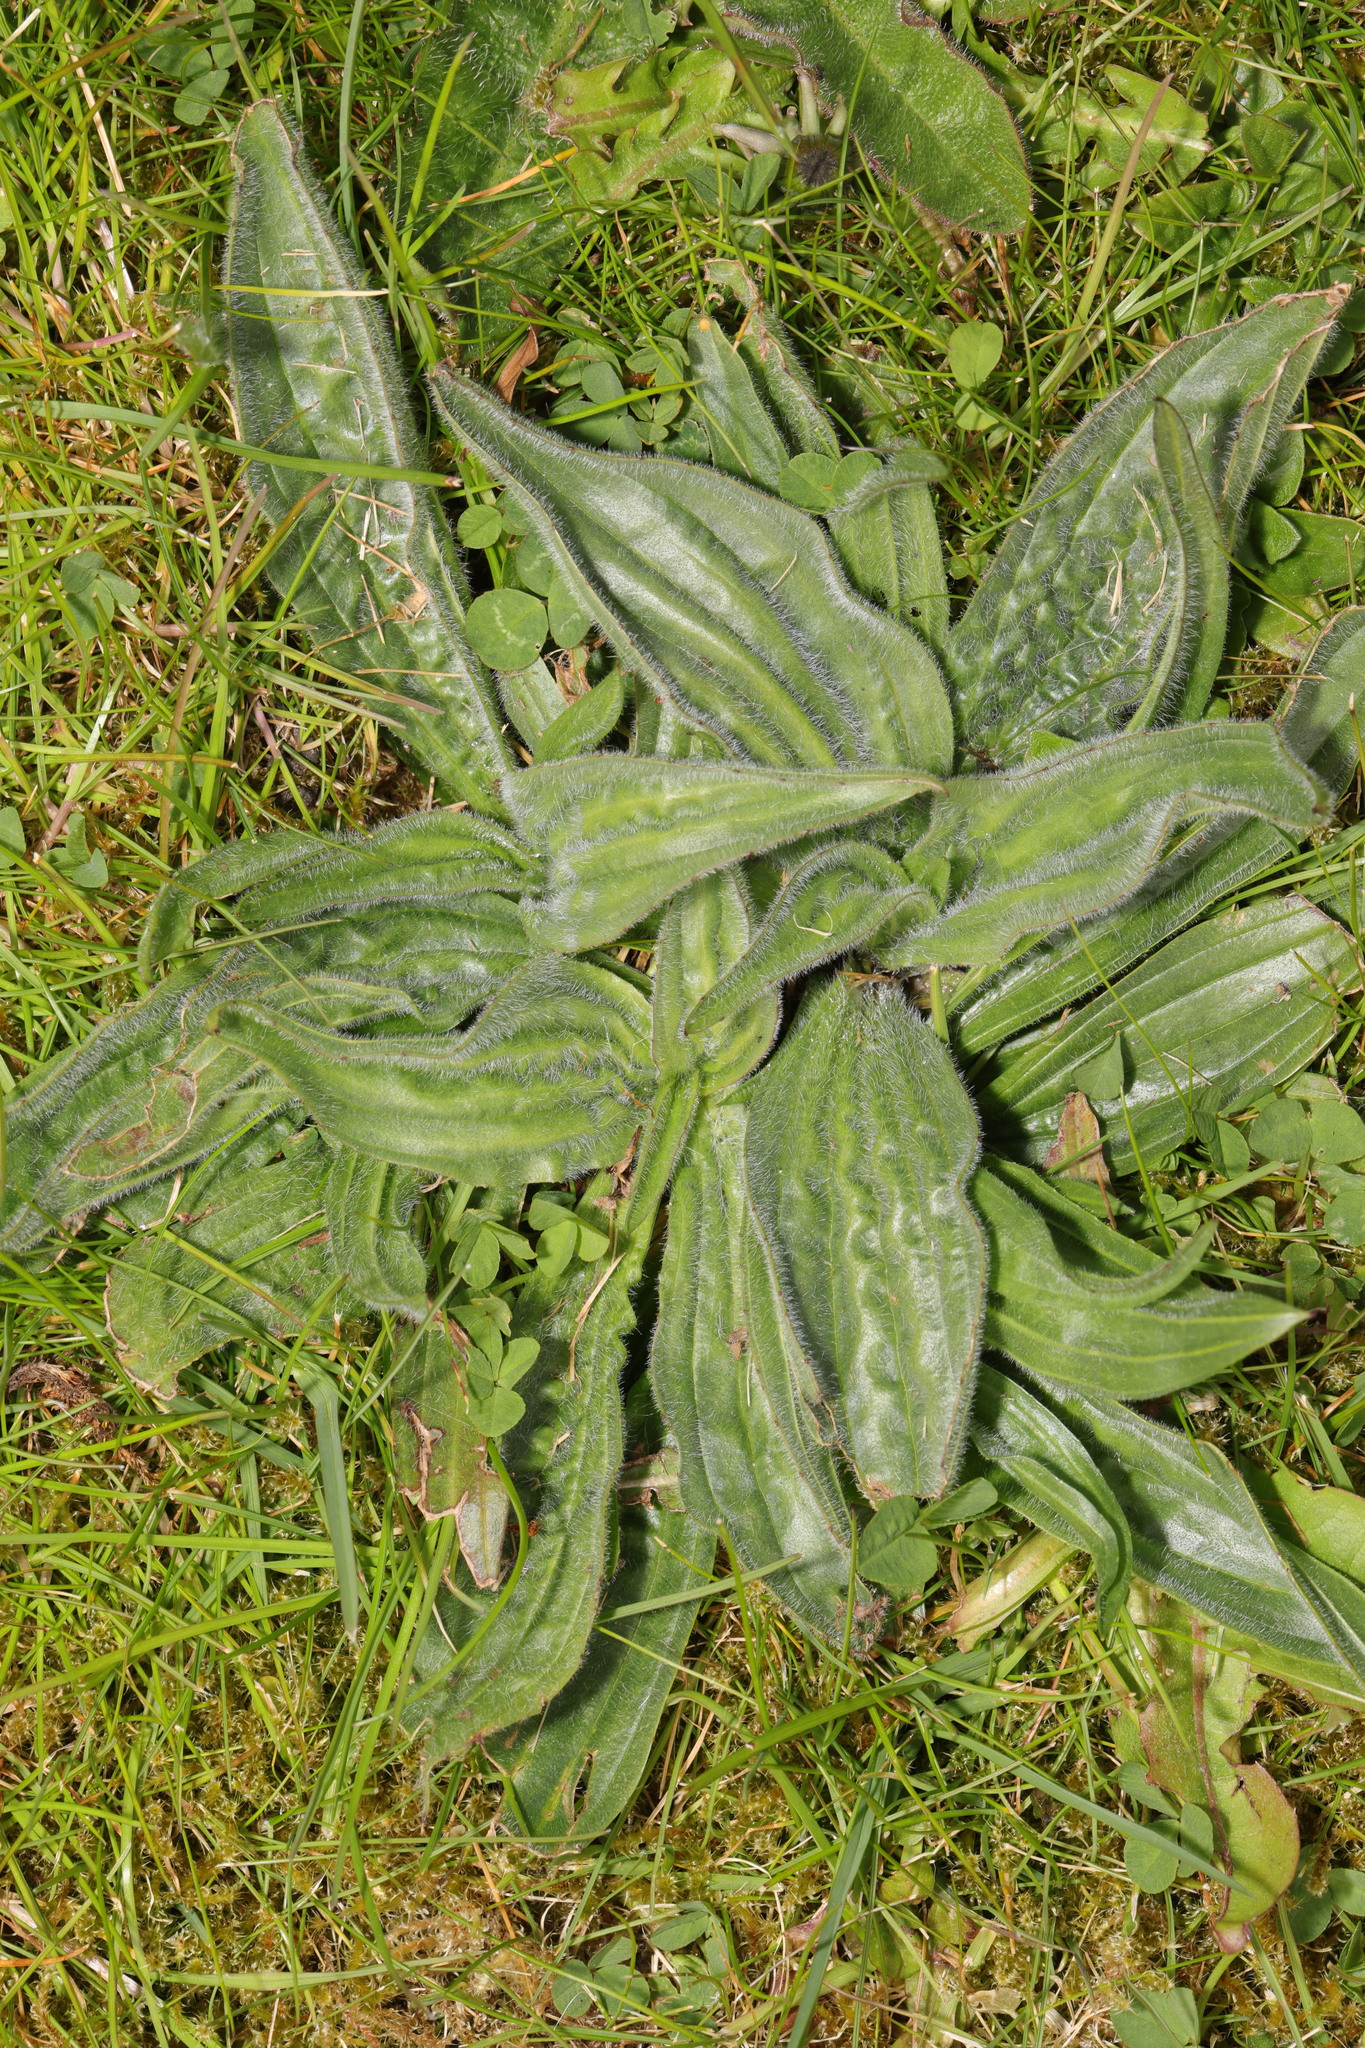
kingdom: Plantae
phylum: Tracheophyta
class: Magnoliopsida
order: Lamiales
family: Plantaginaceae
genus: Plantago
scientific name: Plantago media
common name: Hoary plantain
